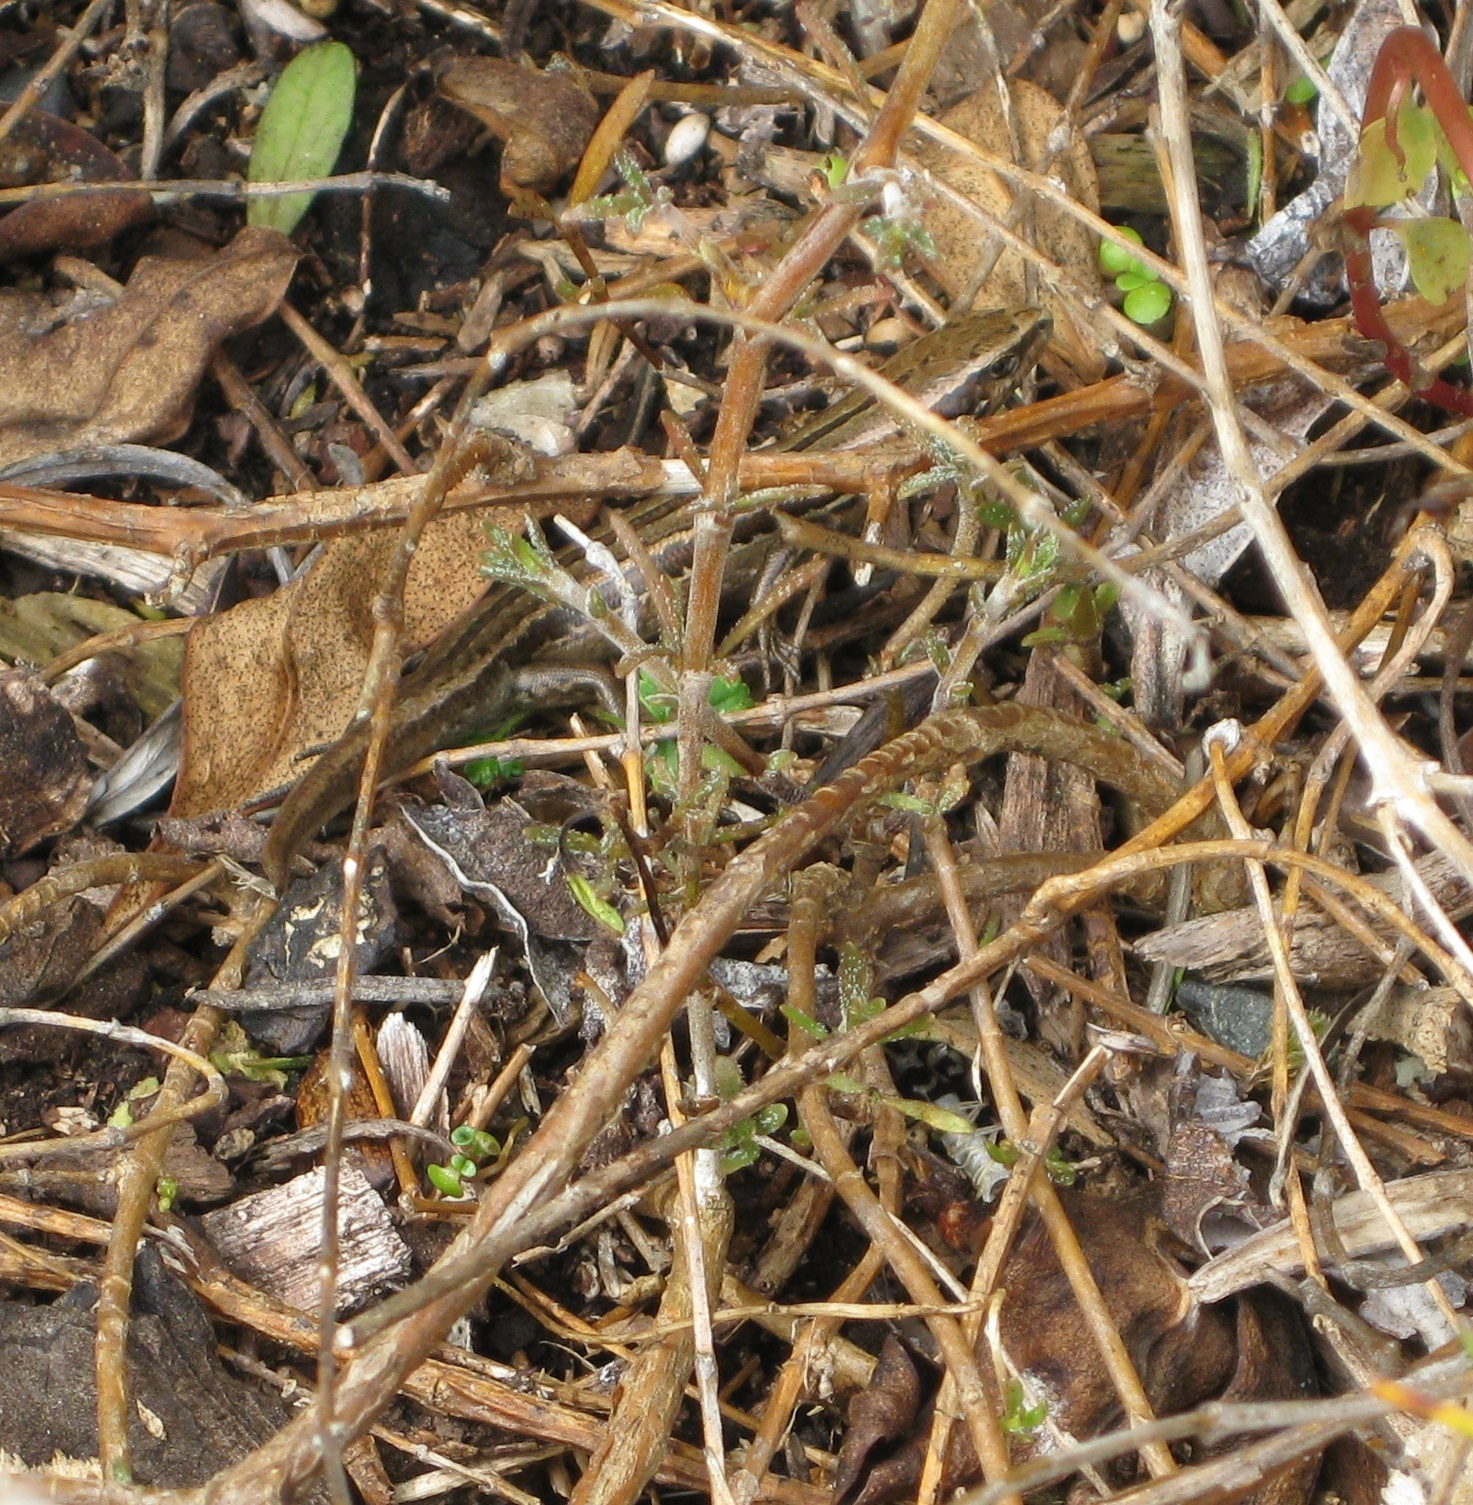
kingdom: Animalia
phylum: Chordata
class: Squamata
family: Scincidae
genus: Oligosoma
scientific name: Oligosoma polychroma
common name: Common new zealand skink
